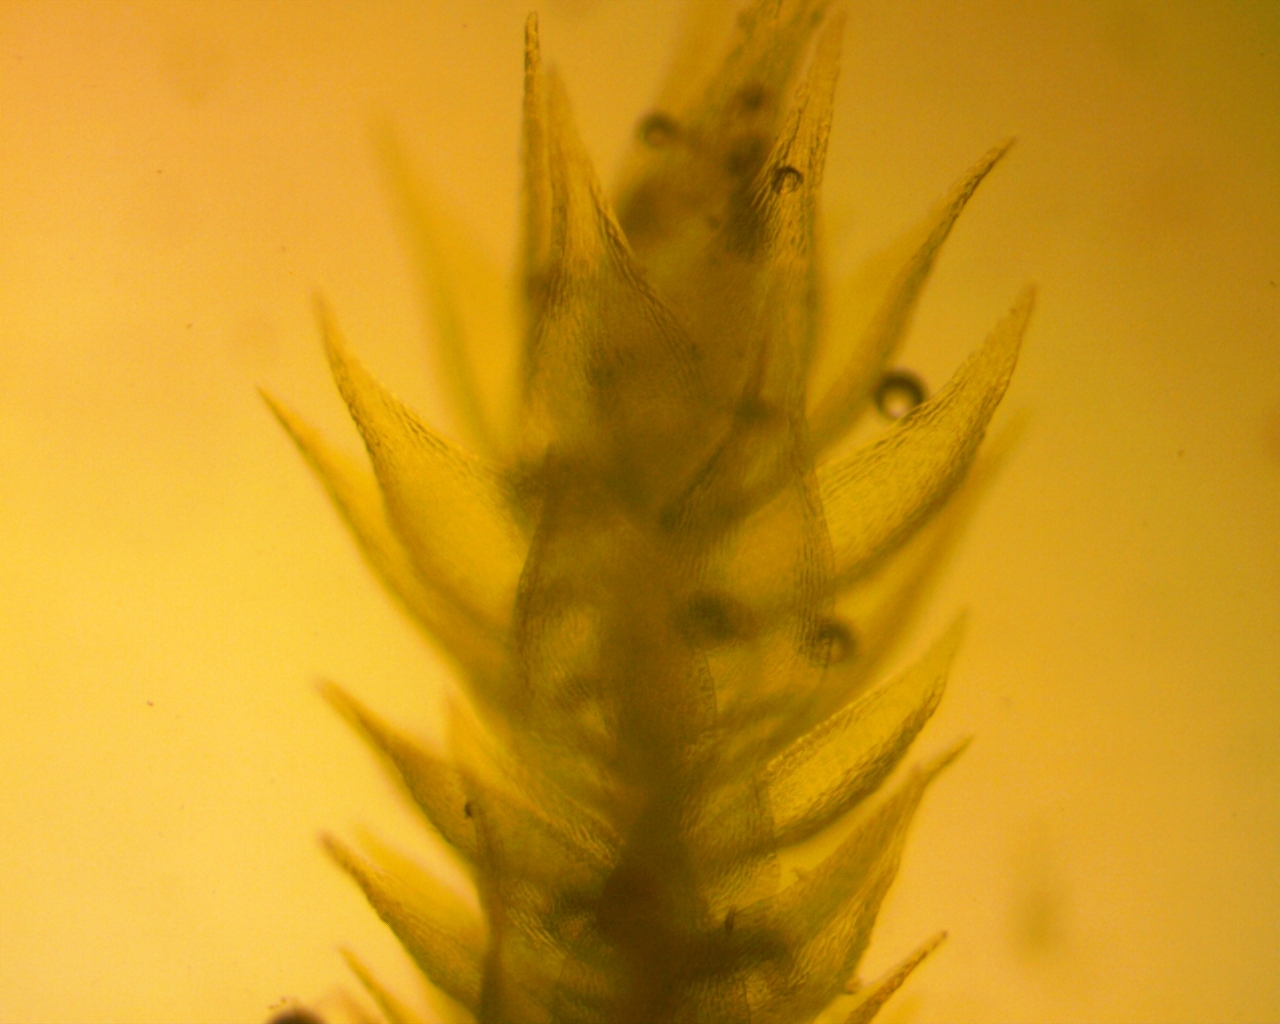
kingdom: Plantae
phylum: Bryophyta
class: Bryopsida
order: Hypnales
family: Amblystegiaceae
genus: Pseudoamblystegium
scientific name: Pseudoamblystegium subtile
